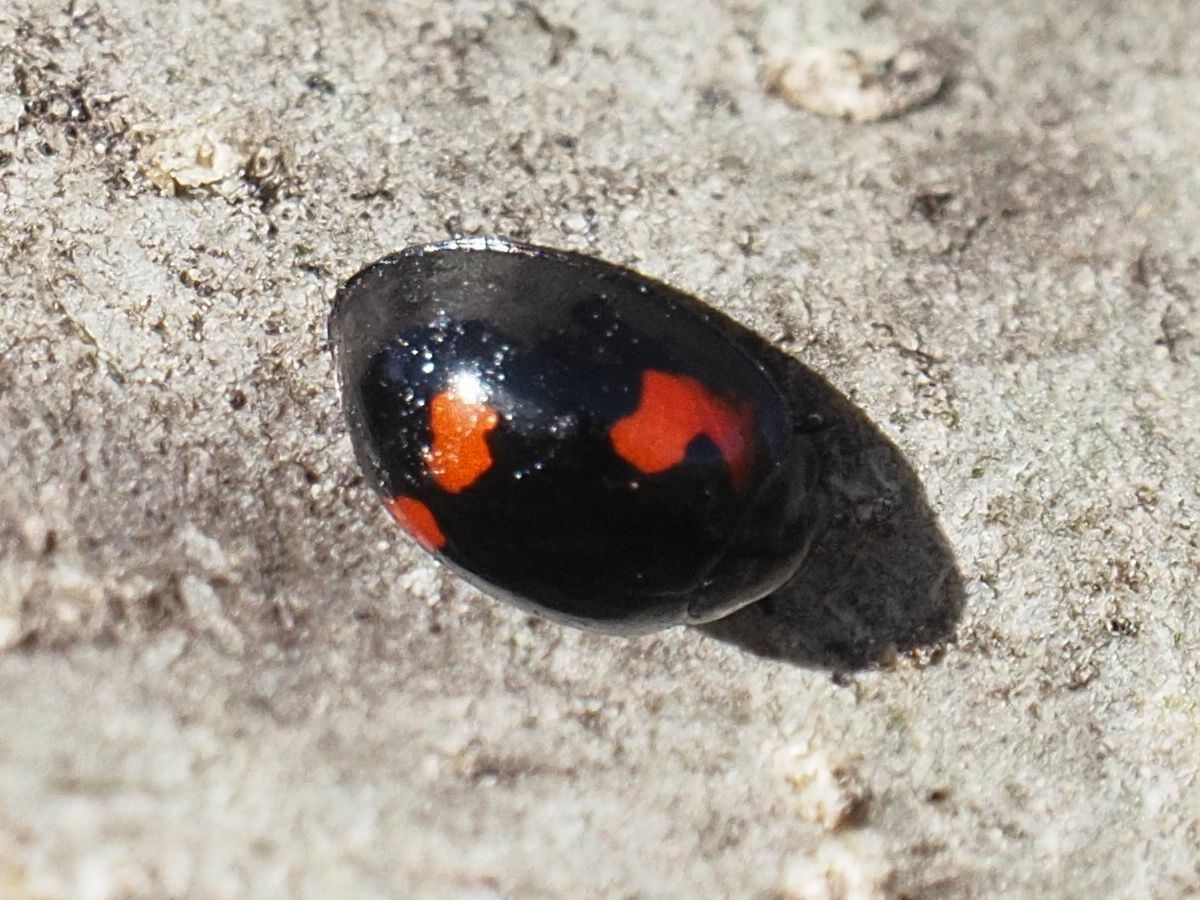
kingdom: Animalia
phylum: Arthropoda
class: Insecta
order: Coleoptera
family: Coccinellidae
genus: Brumus
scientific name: Brumus quadripustulatus
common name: Ladybird beetle
